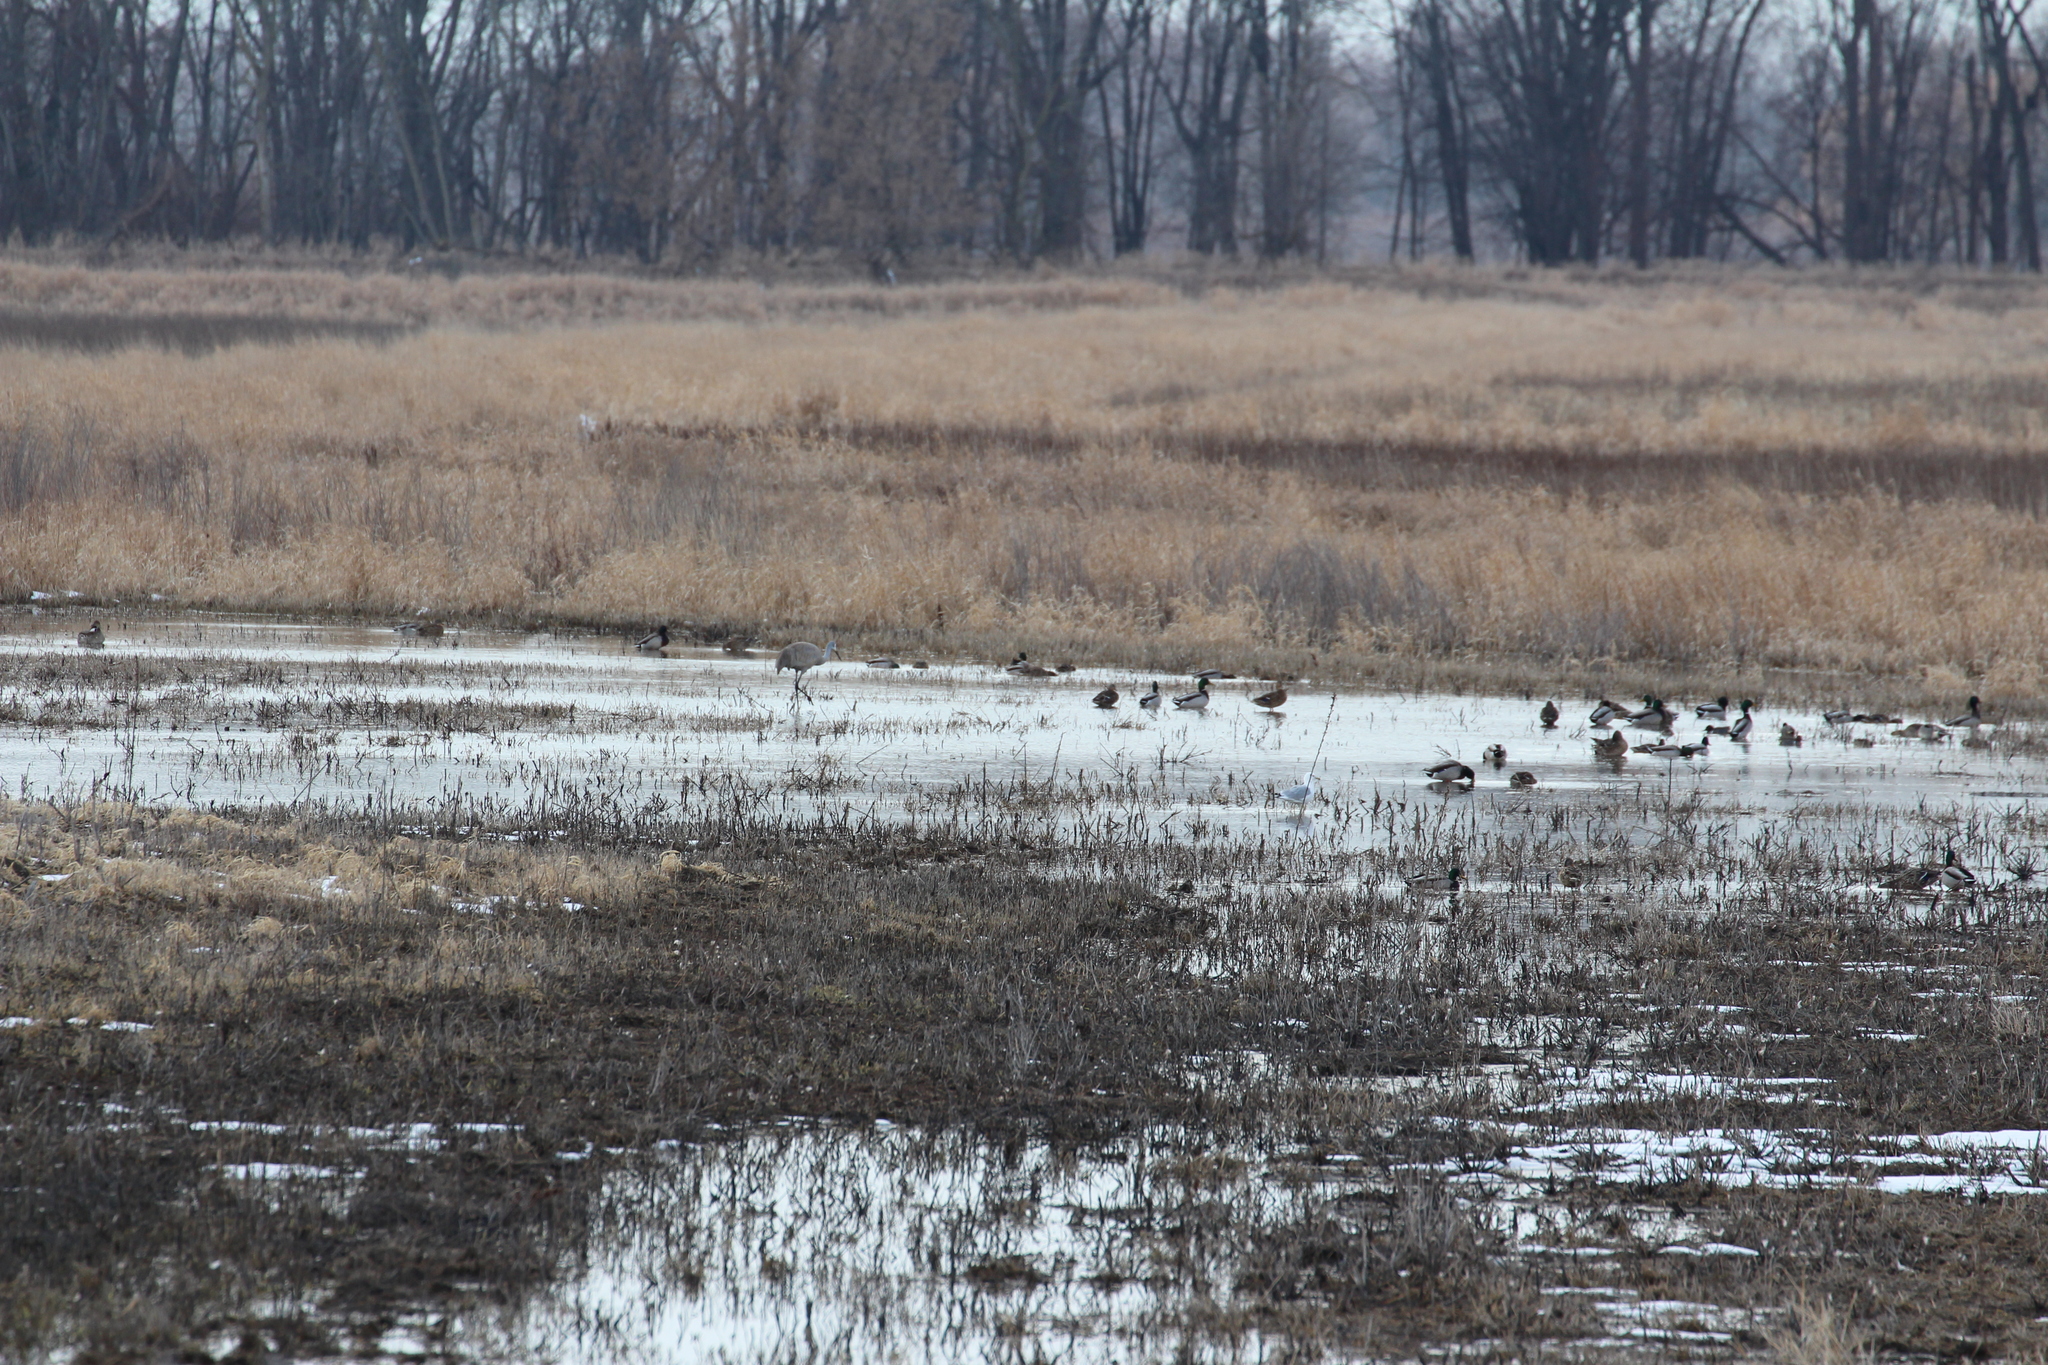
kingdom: Animalia
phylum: Chordata
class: Aves
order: Gruiformes
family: Gruidae
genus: Grus
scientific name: Grus canadensis
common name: Sandhill crane
